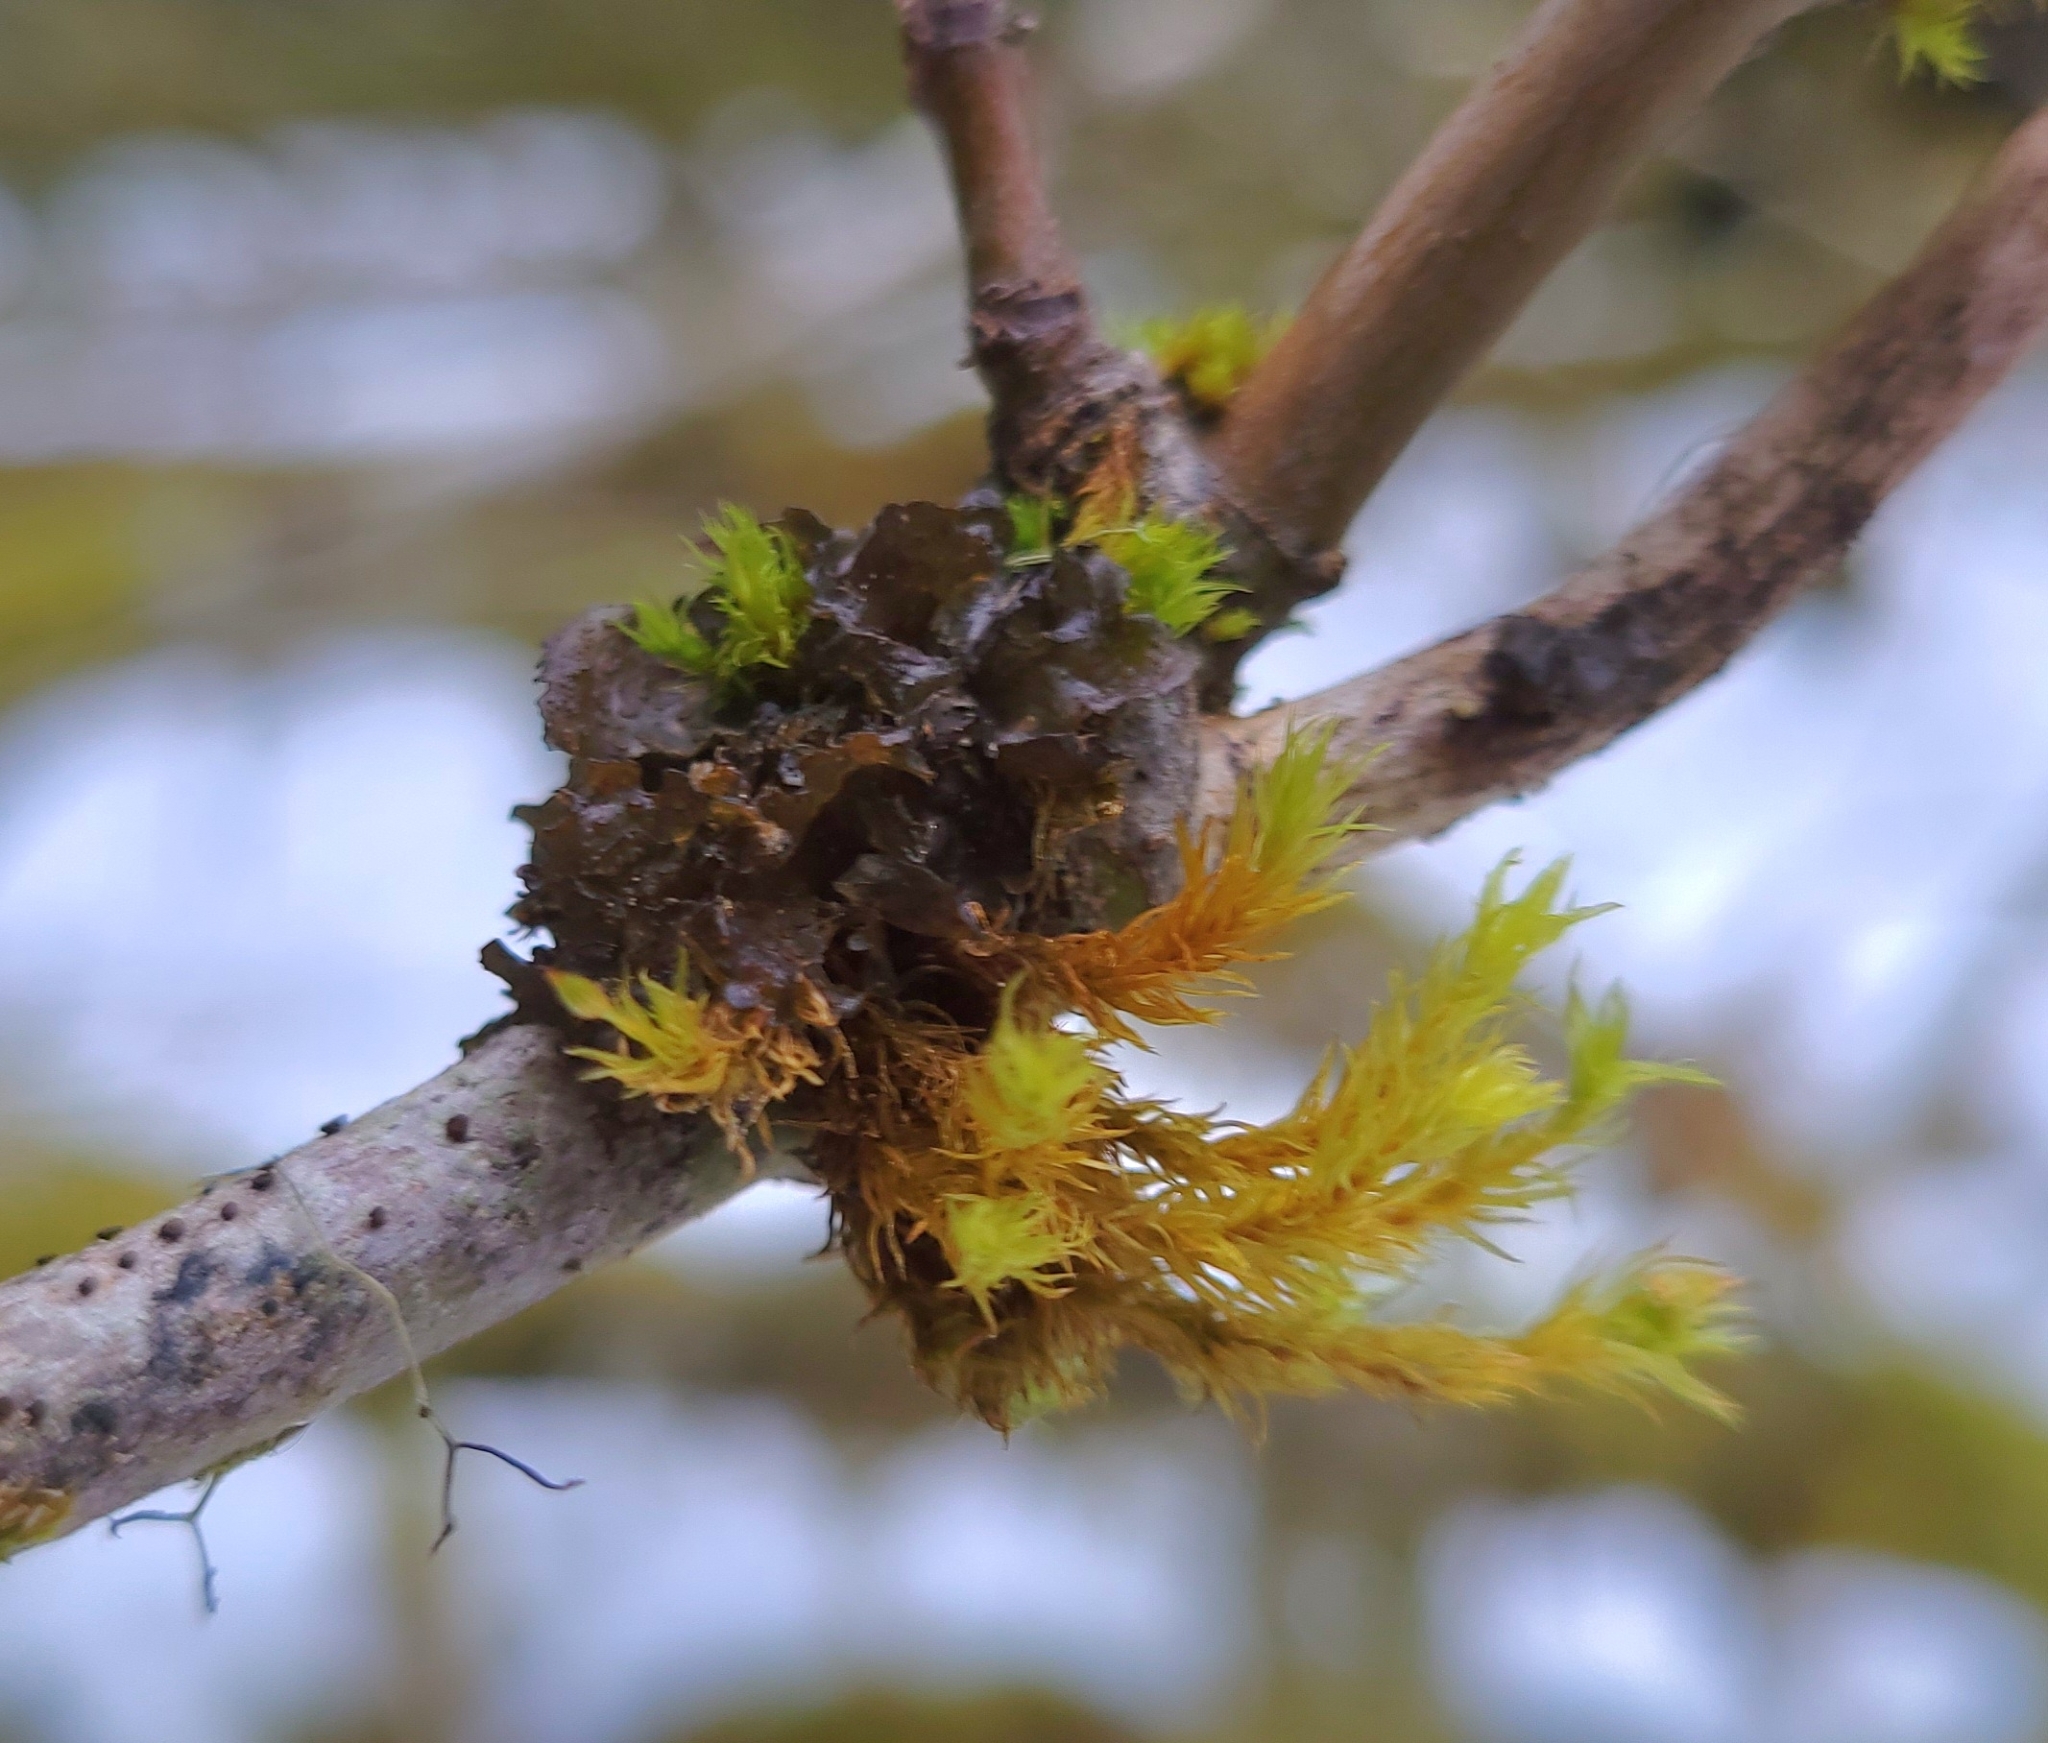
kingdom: Fungi
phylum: Ascomycota
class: Lecanoromycetes
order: Peltigerales
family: Collemataceae
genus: Scytinium
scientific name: Scytinium polycarpum
